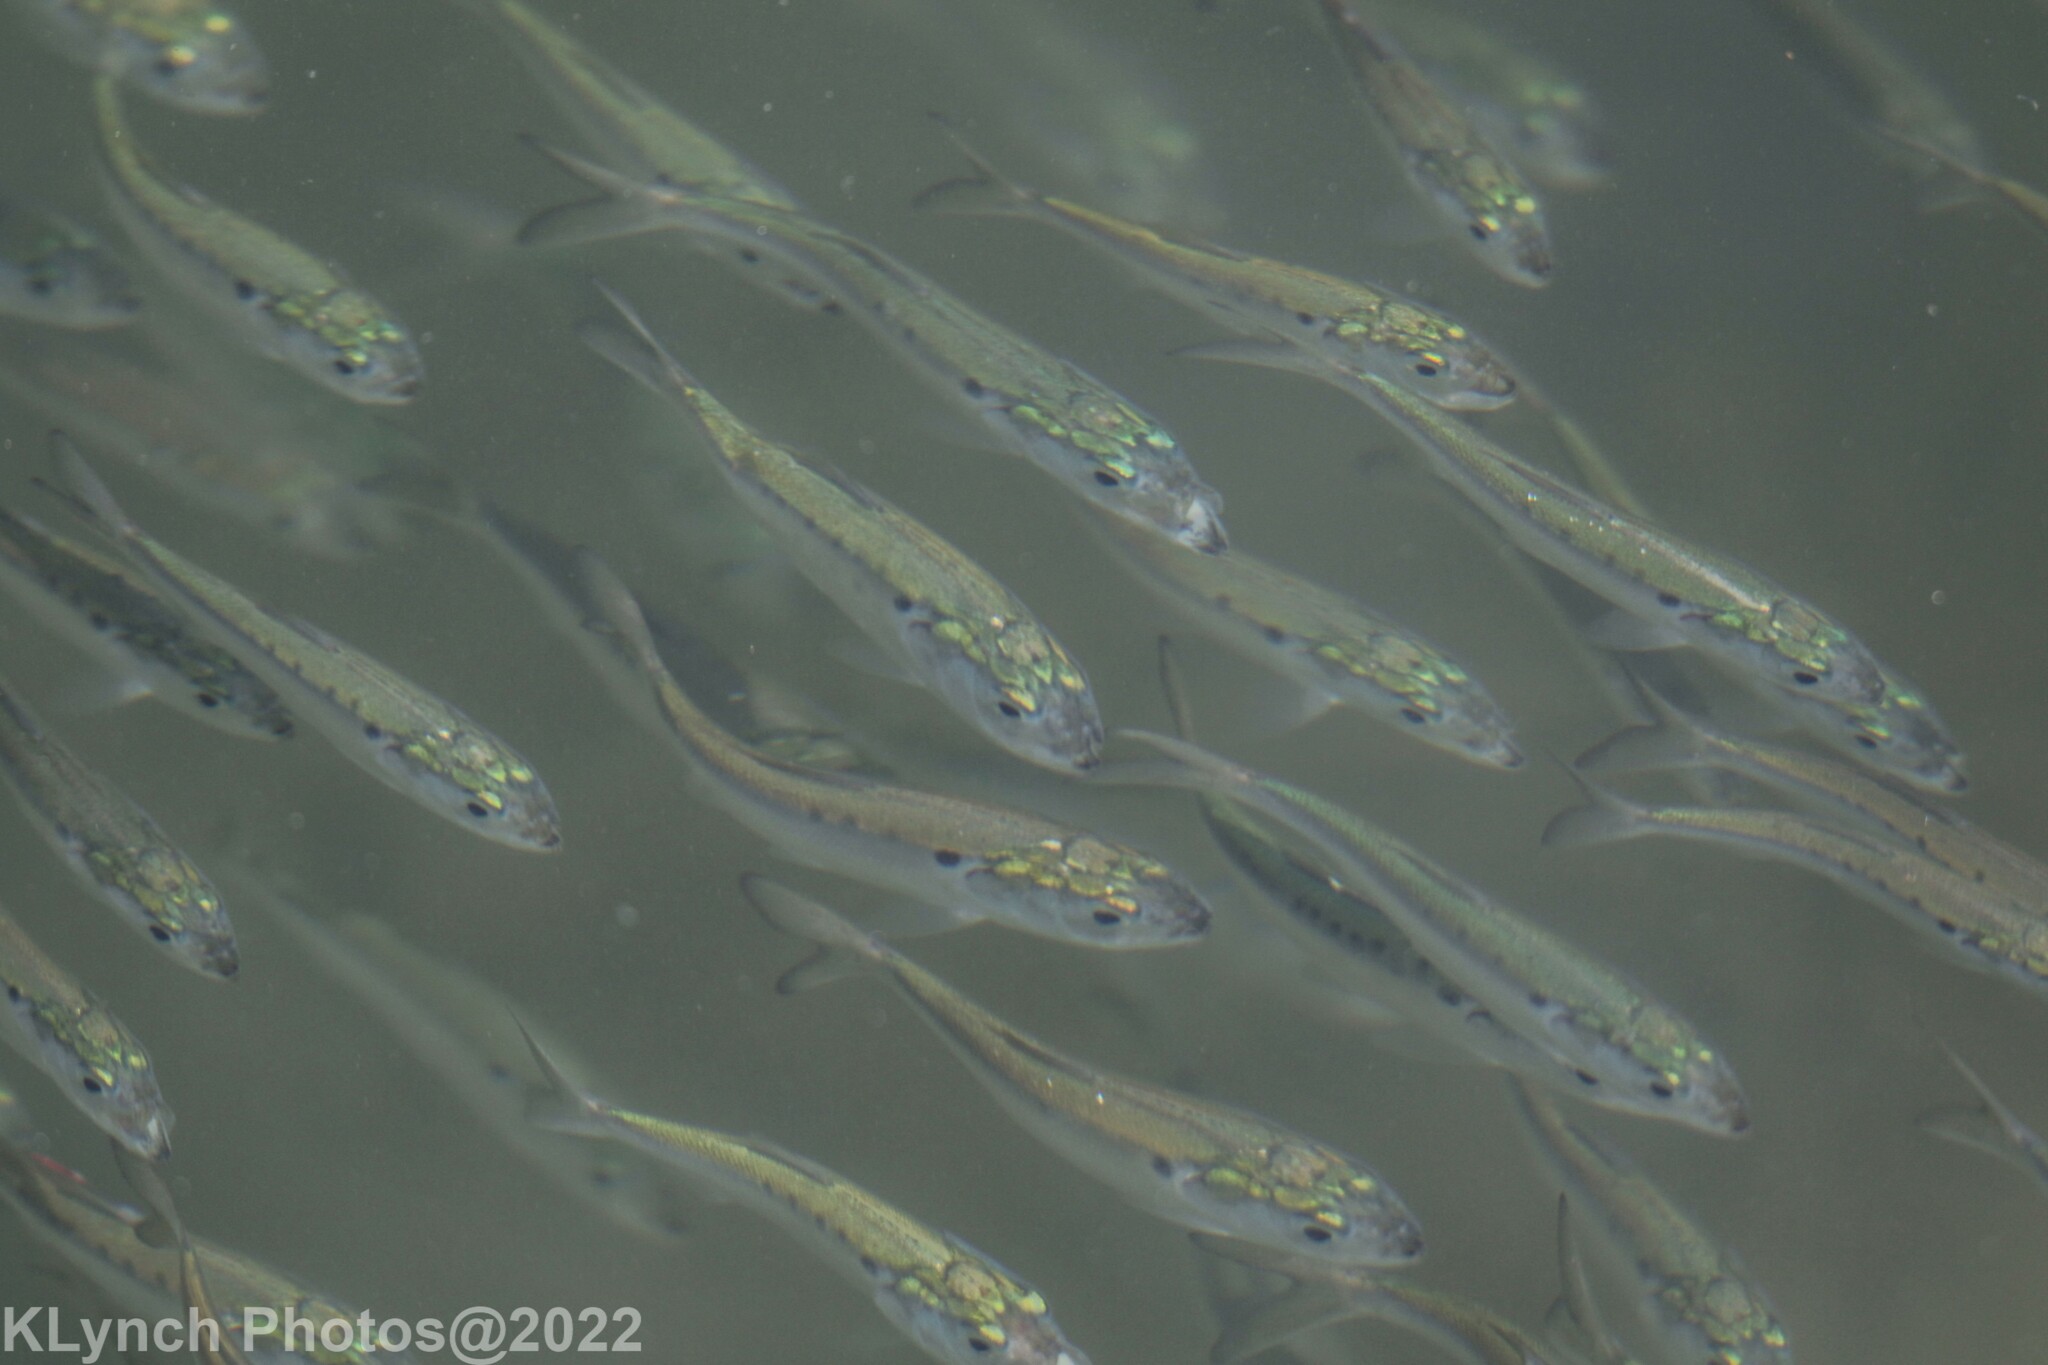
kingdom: Animalia
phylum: Chordata
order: Clupeiformes
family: Clupeidae
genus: Brevoortia
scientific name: Brevoortia tyrannus
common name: Atlantic menhaden
